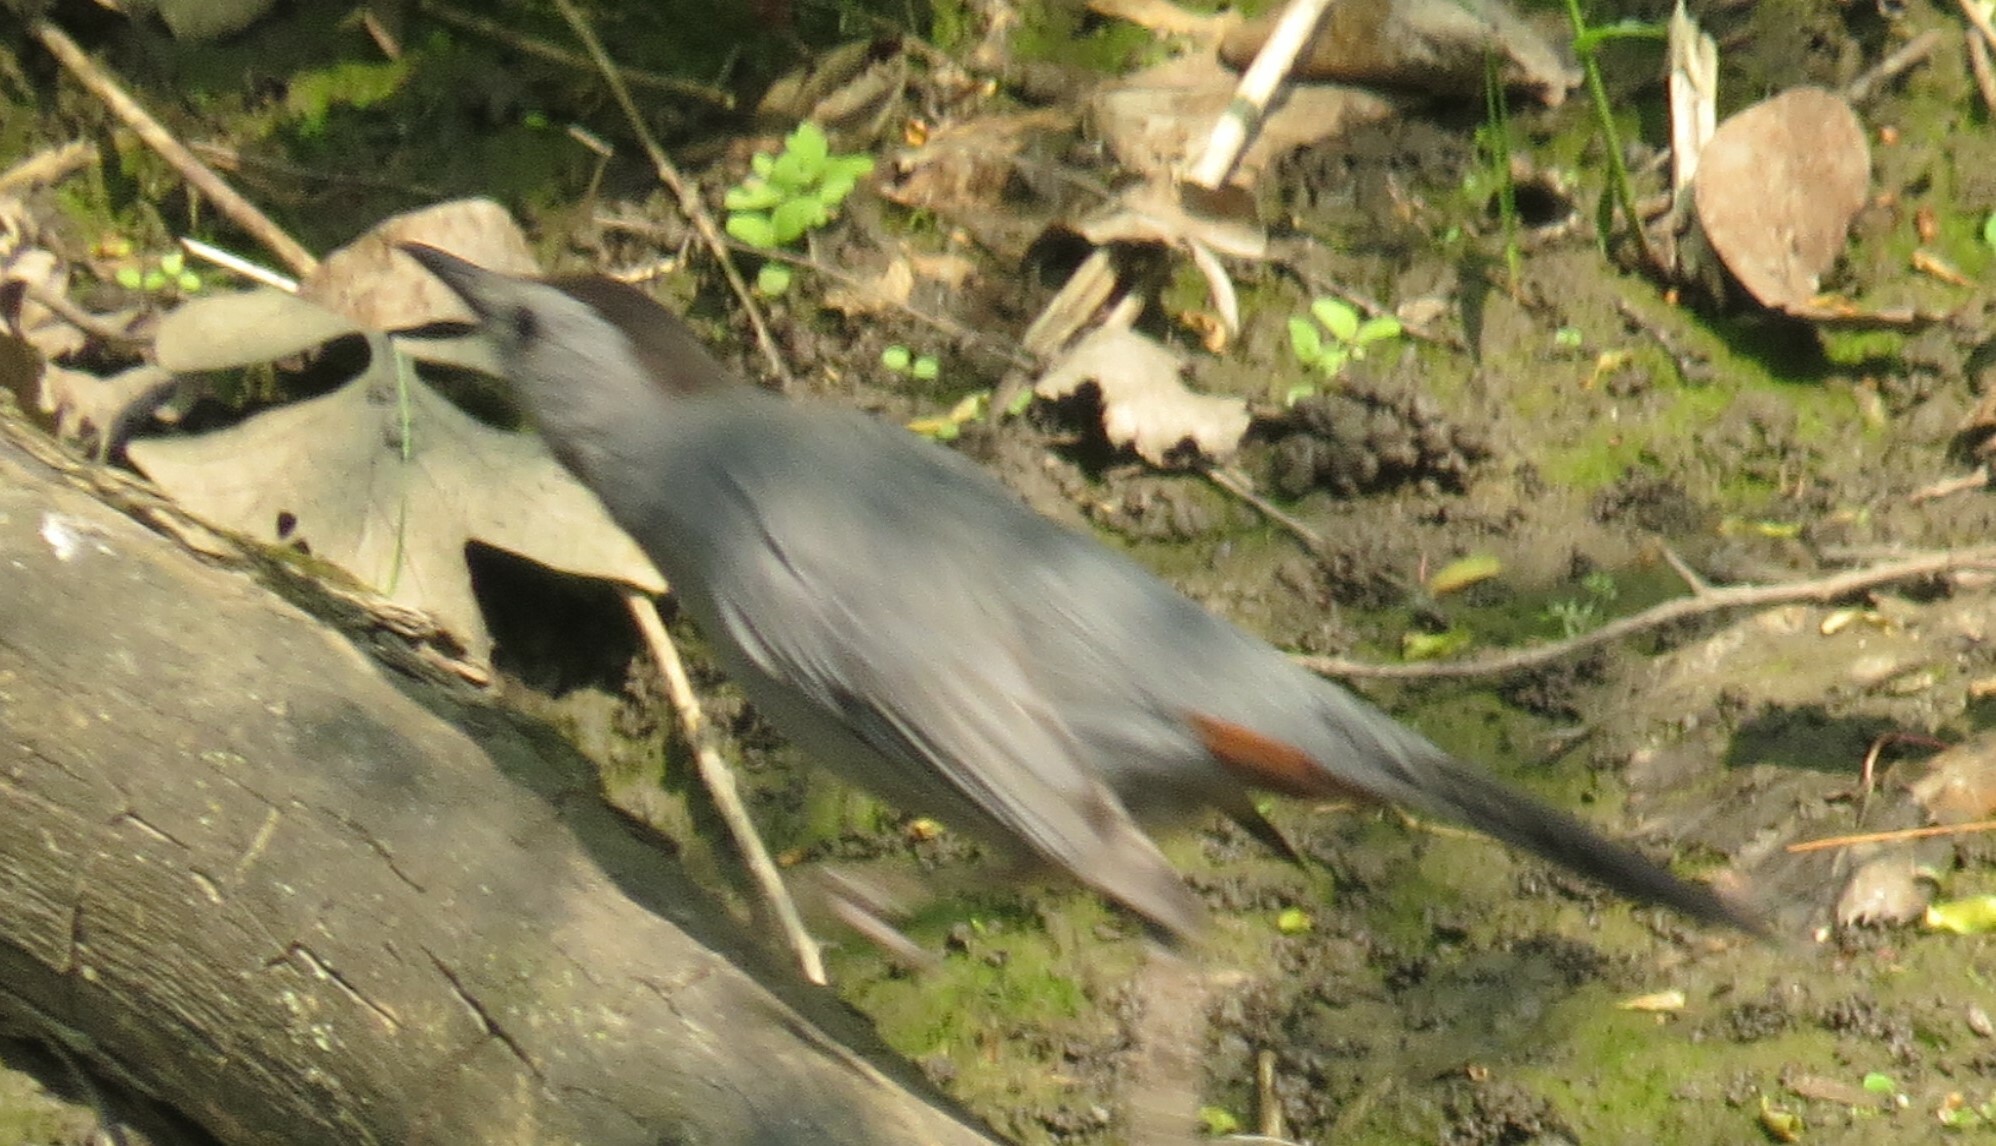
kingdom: Animalia
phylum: Chordata
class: Aves
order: Passeriformes
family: Mimidae
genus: Dumetella
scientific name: Dumetella carolinensis
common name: Gray catbird
